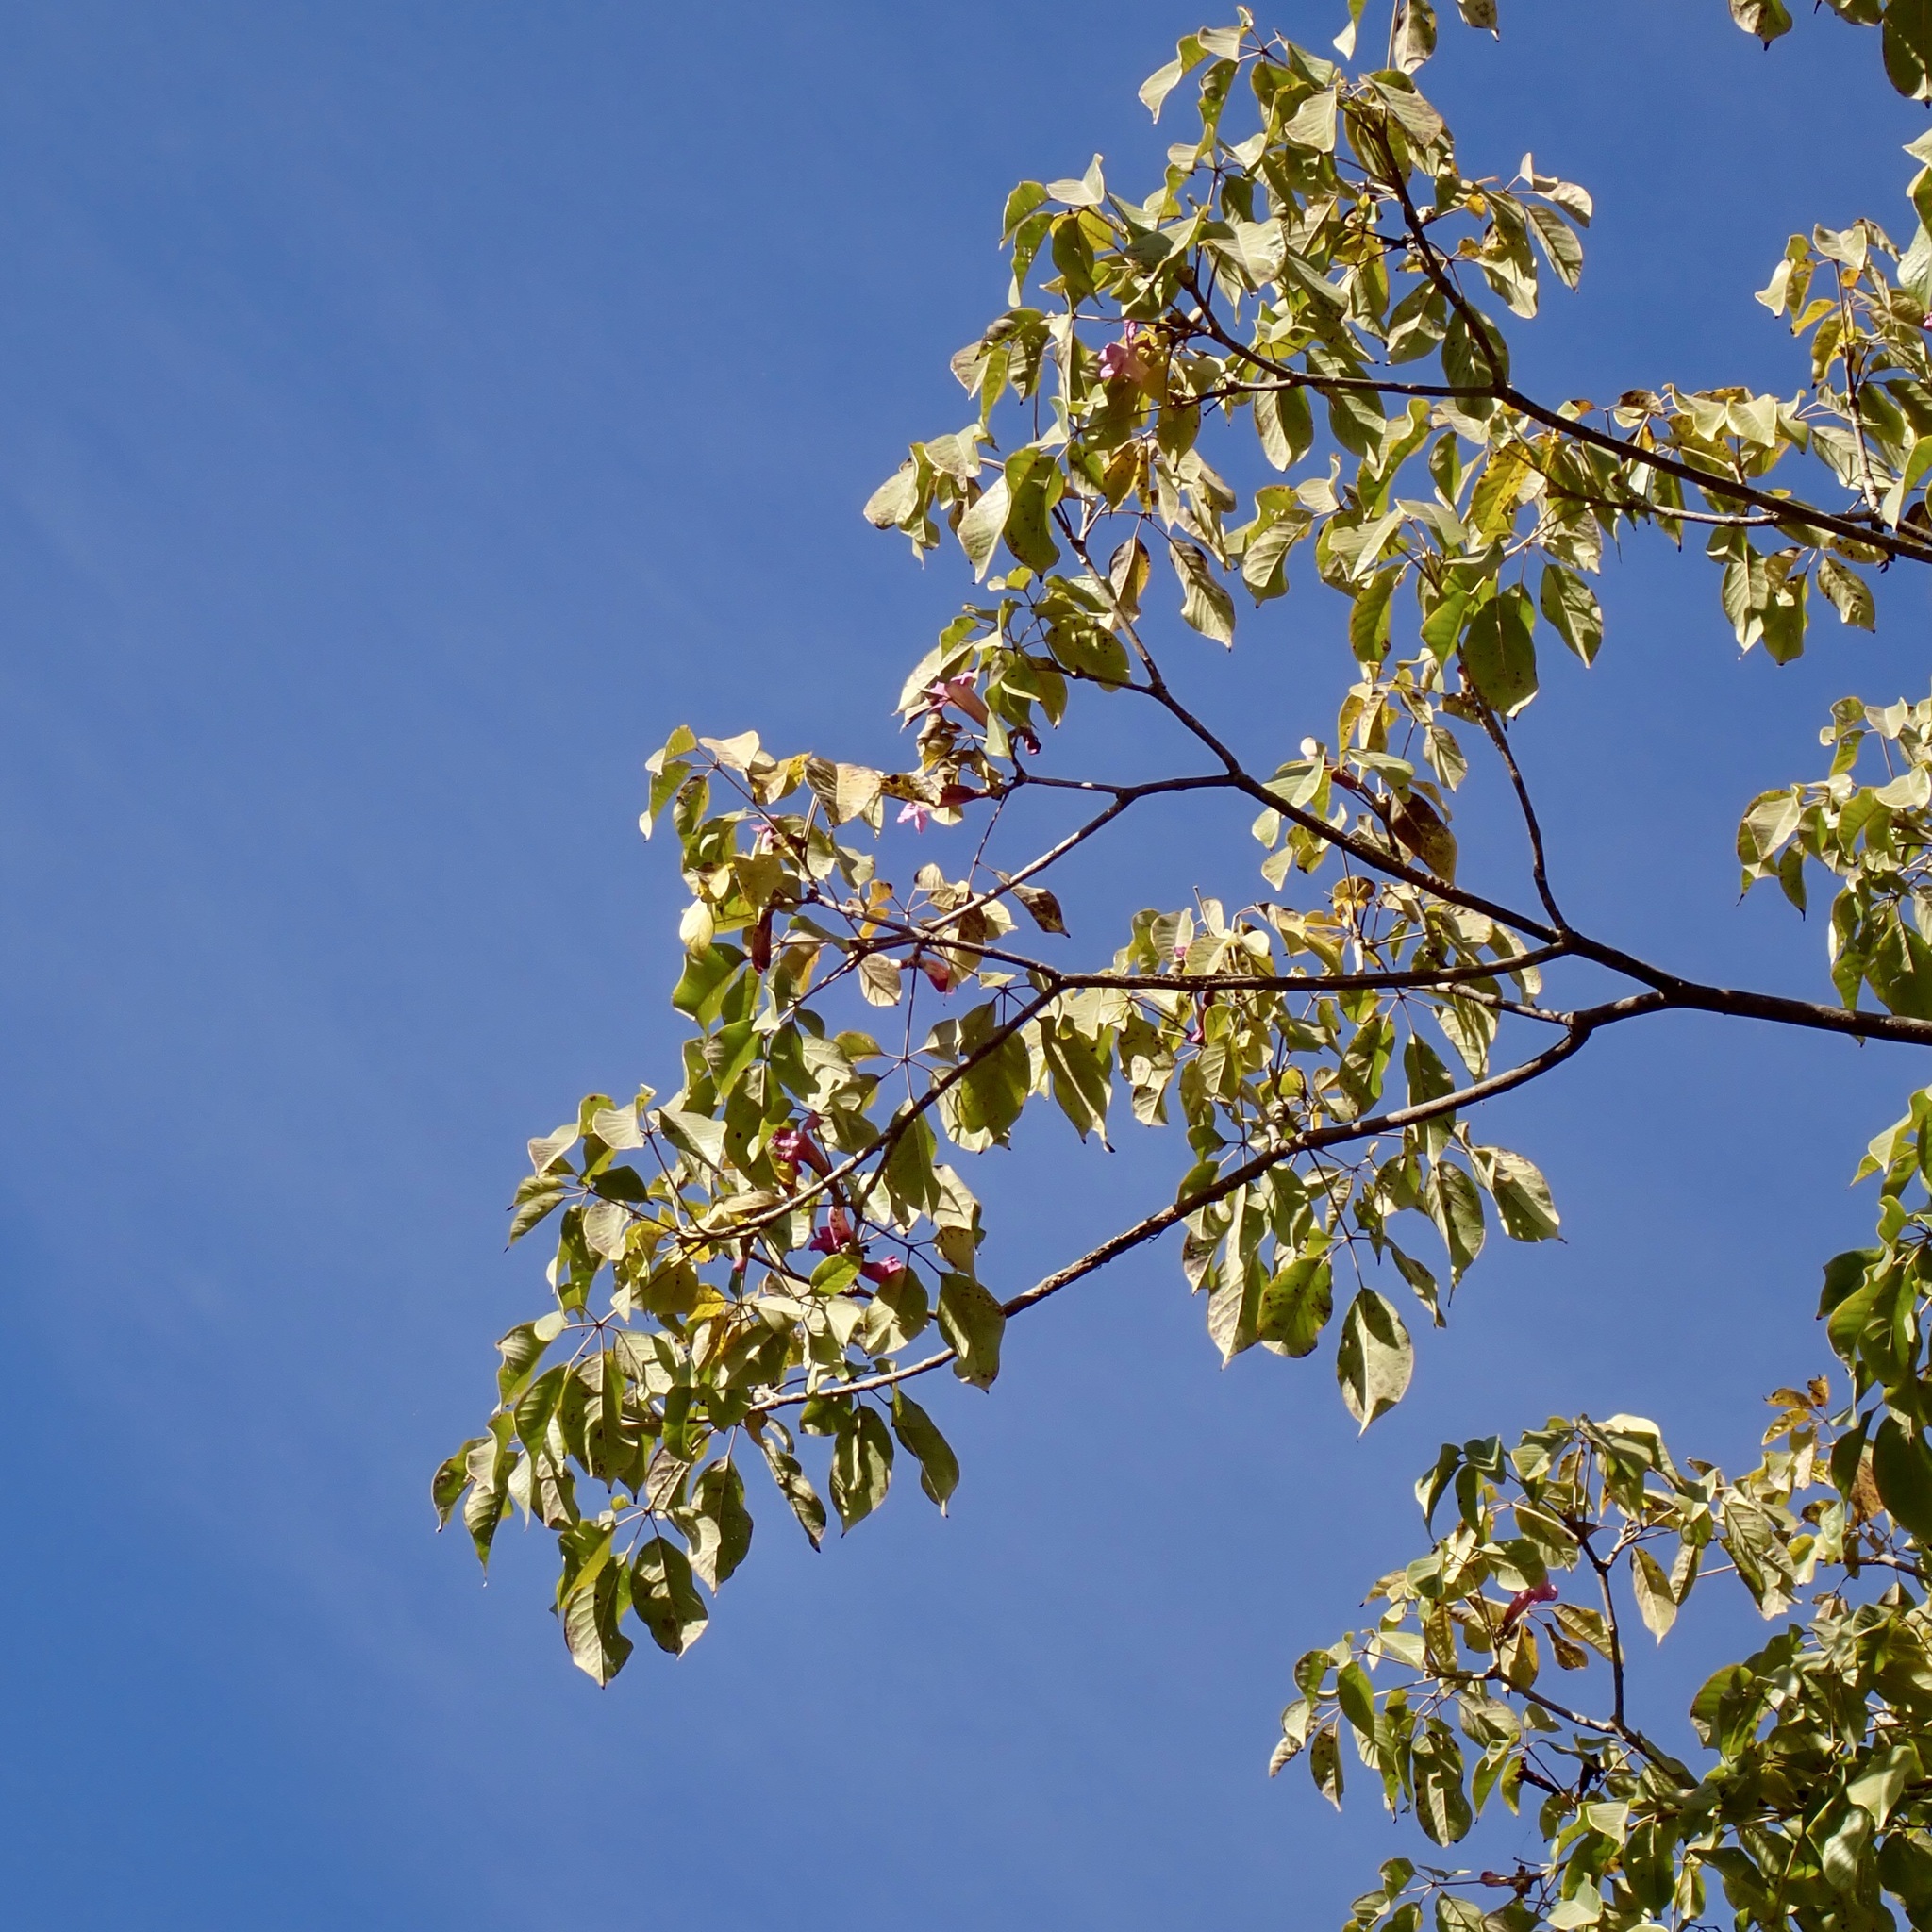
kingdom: Plantae
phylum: Tracheophyta
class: Magnoliopsida
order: Lamiales
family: Bignoniaceae
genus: Handroanthus
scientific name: Handroanthus impetiginosum
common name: Pink trumpet tree
